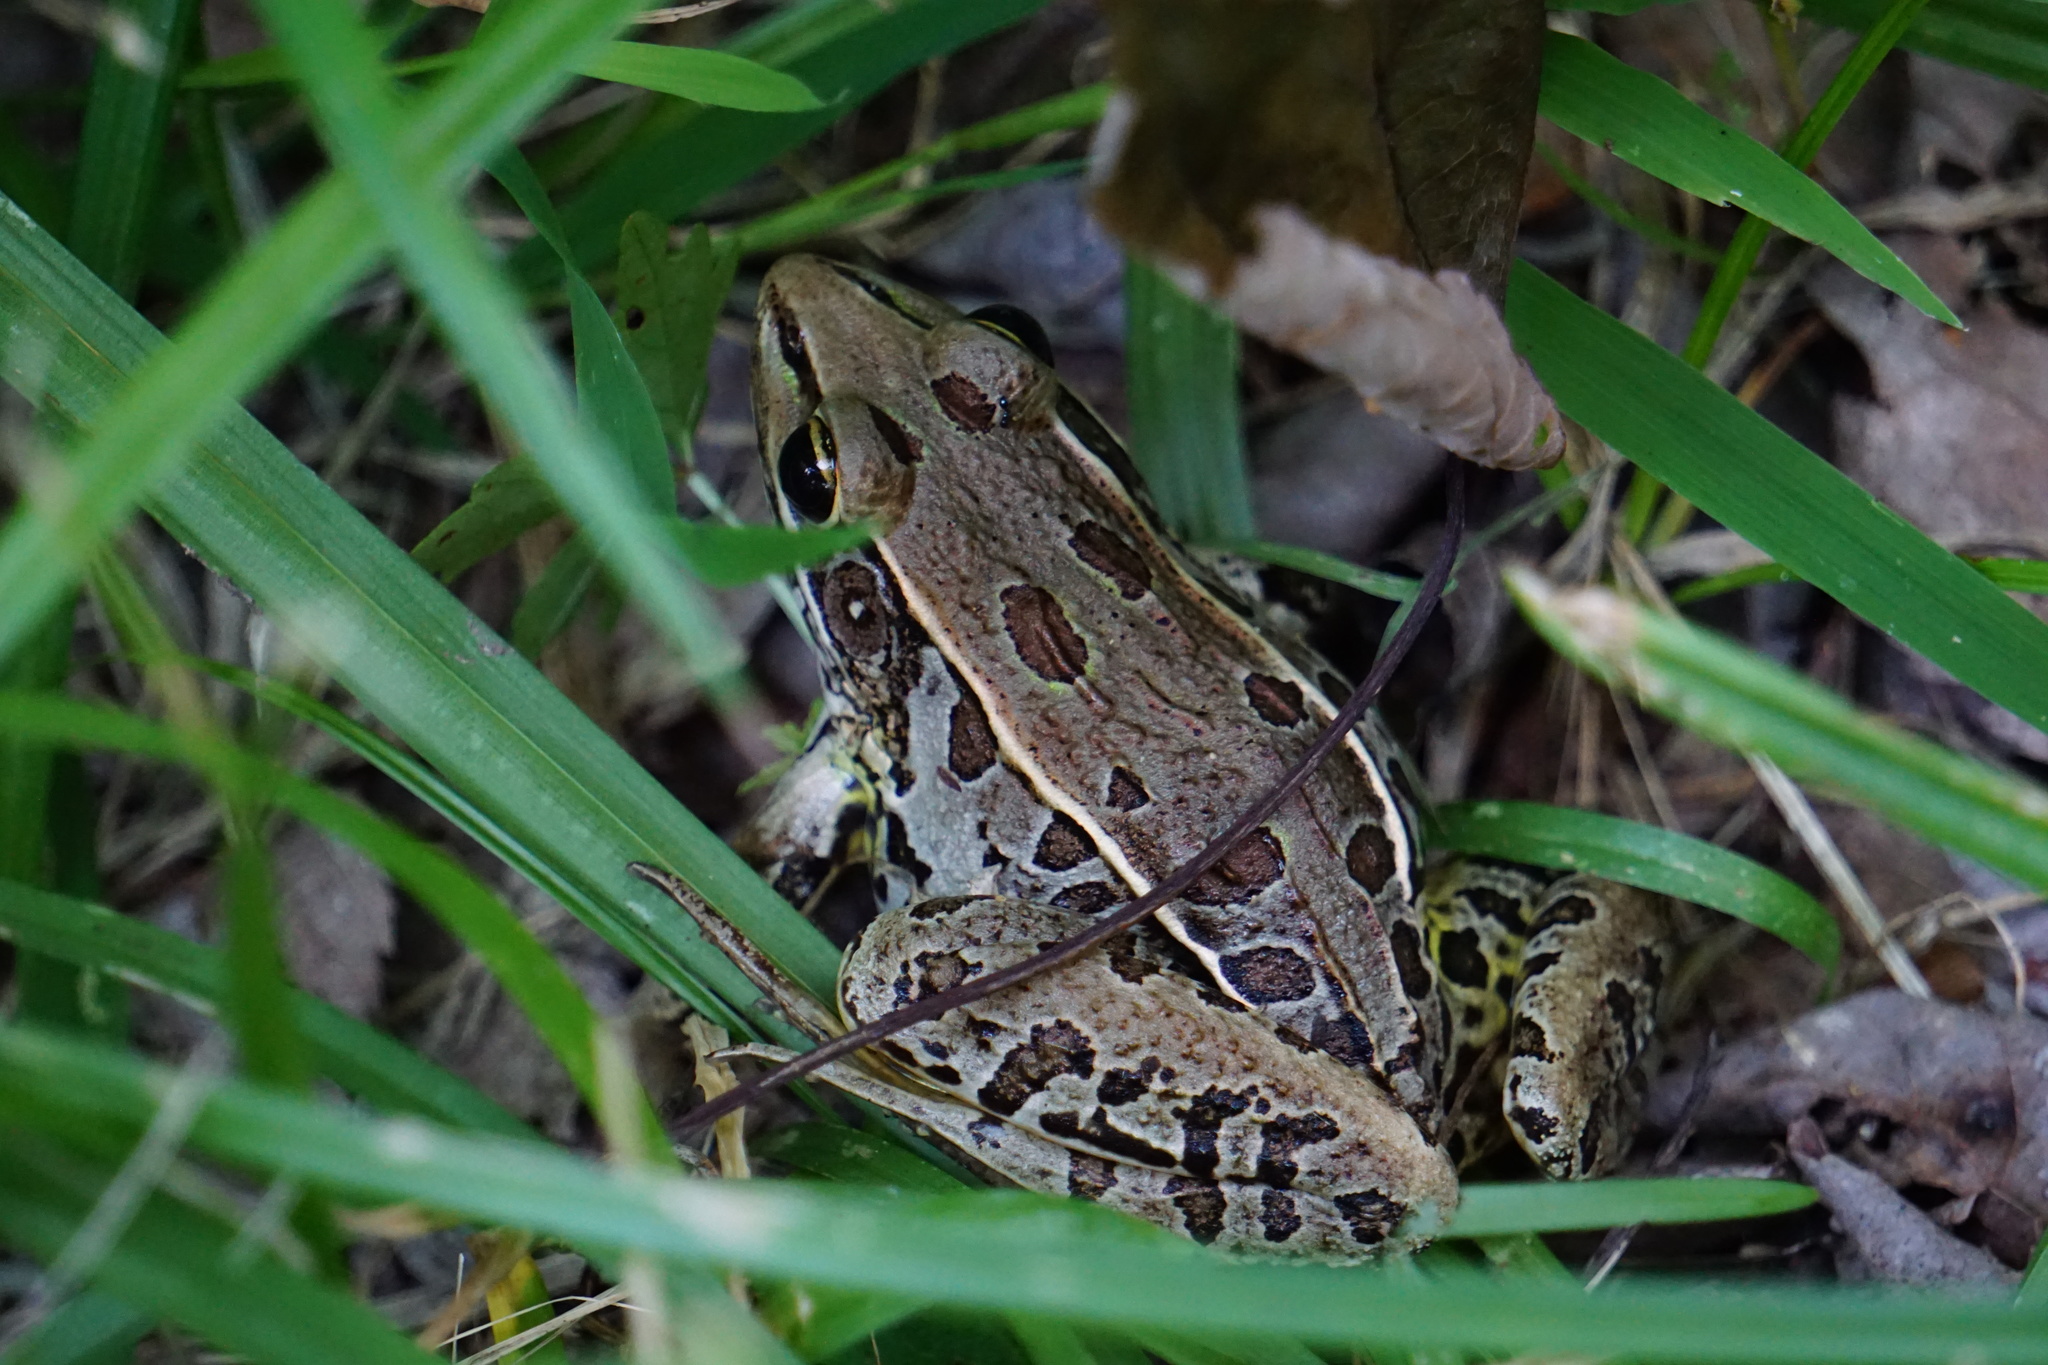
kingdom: Animalia
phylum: Chordata
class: Amphibia
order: Anura
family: Ranidae
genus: Lithobates
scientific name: Lithobates sphenocephalus
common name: Southern leopard frog
